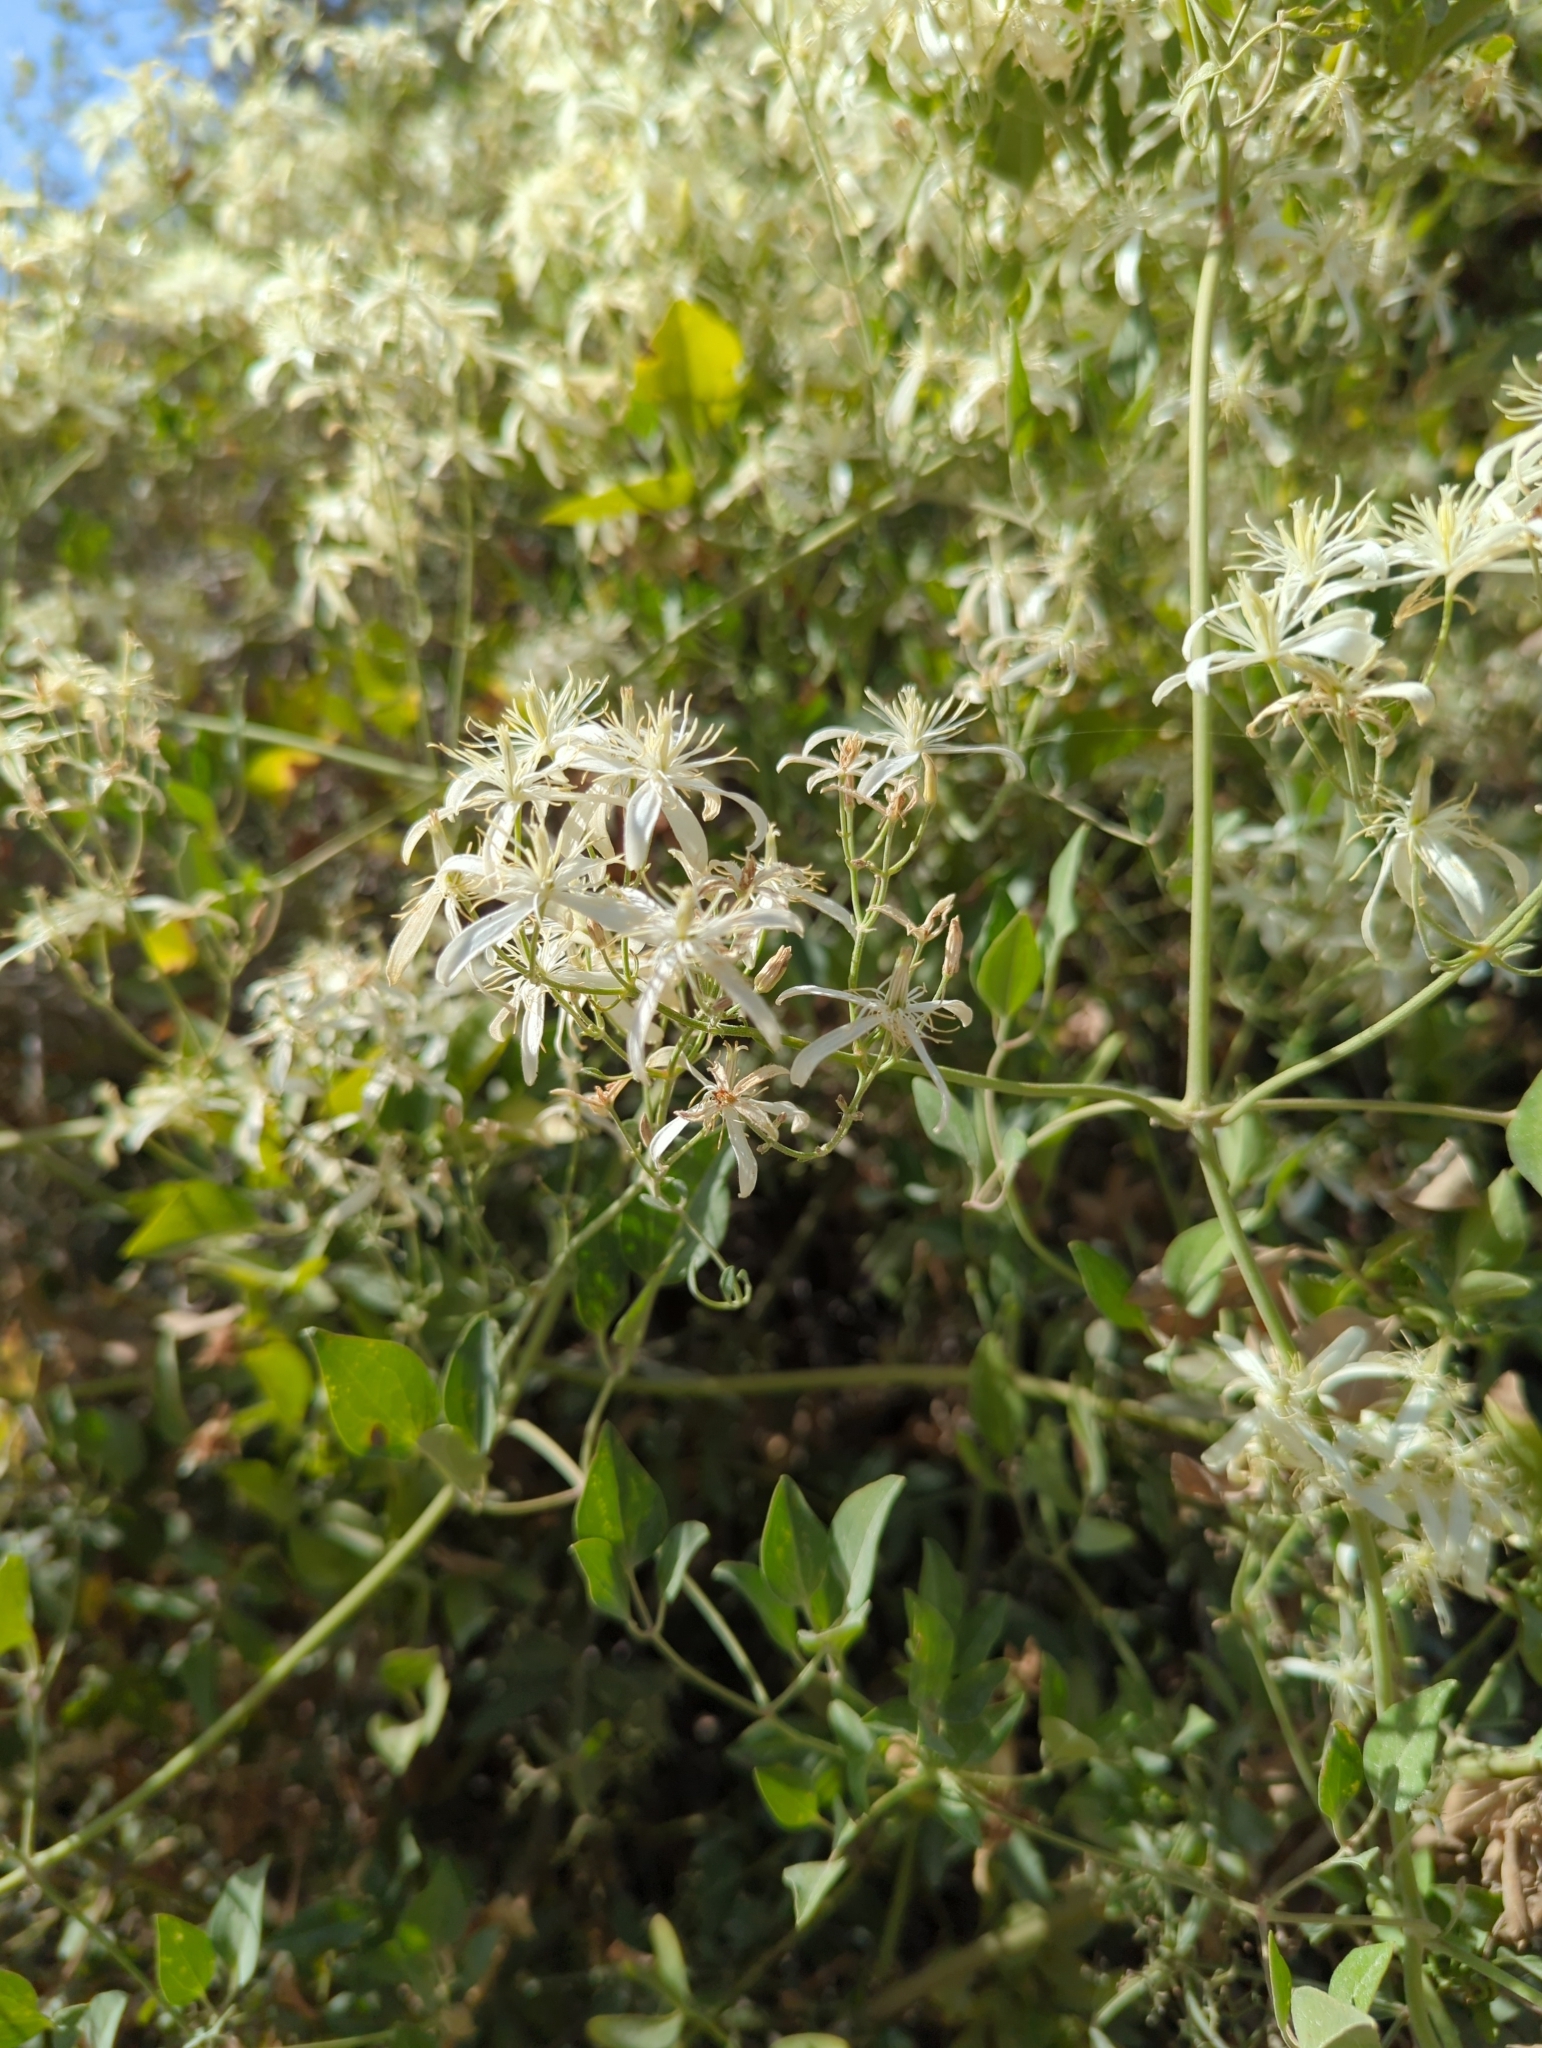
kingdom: Plantae
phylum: Tracheophyta
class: Magnoliopsida
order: Ranunculales
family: Ranunculaceae
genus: Clematis
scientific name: Clematis flammula
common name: Virgin's-bower
